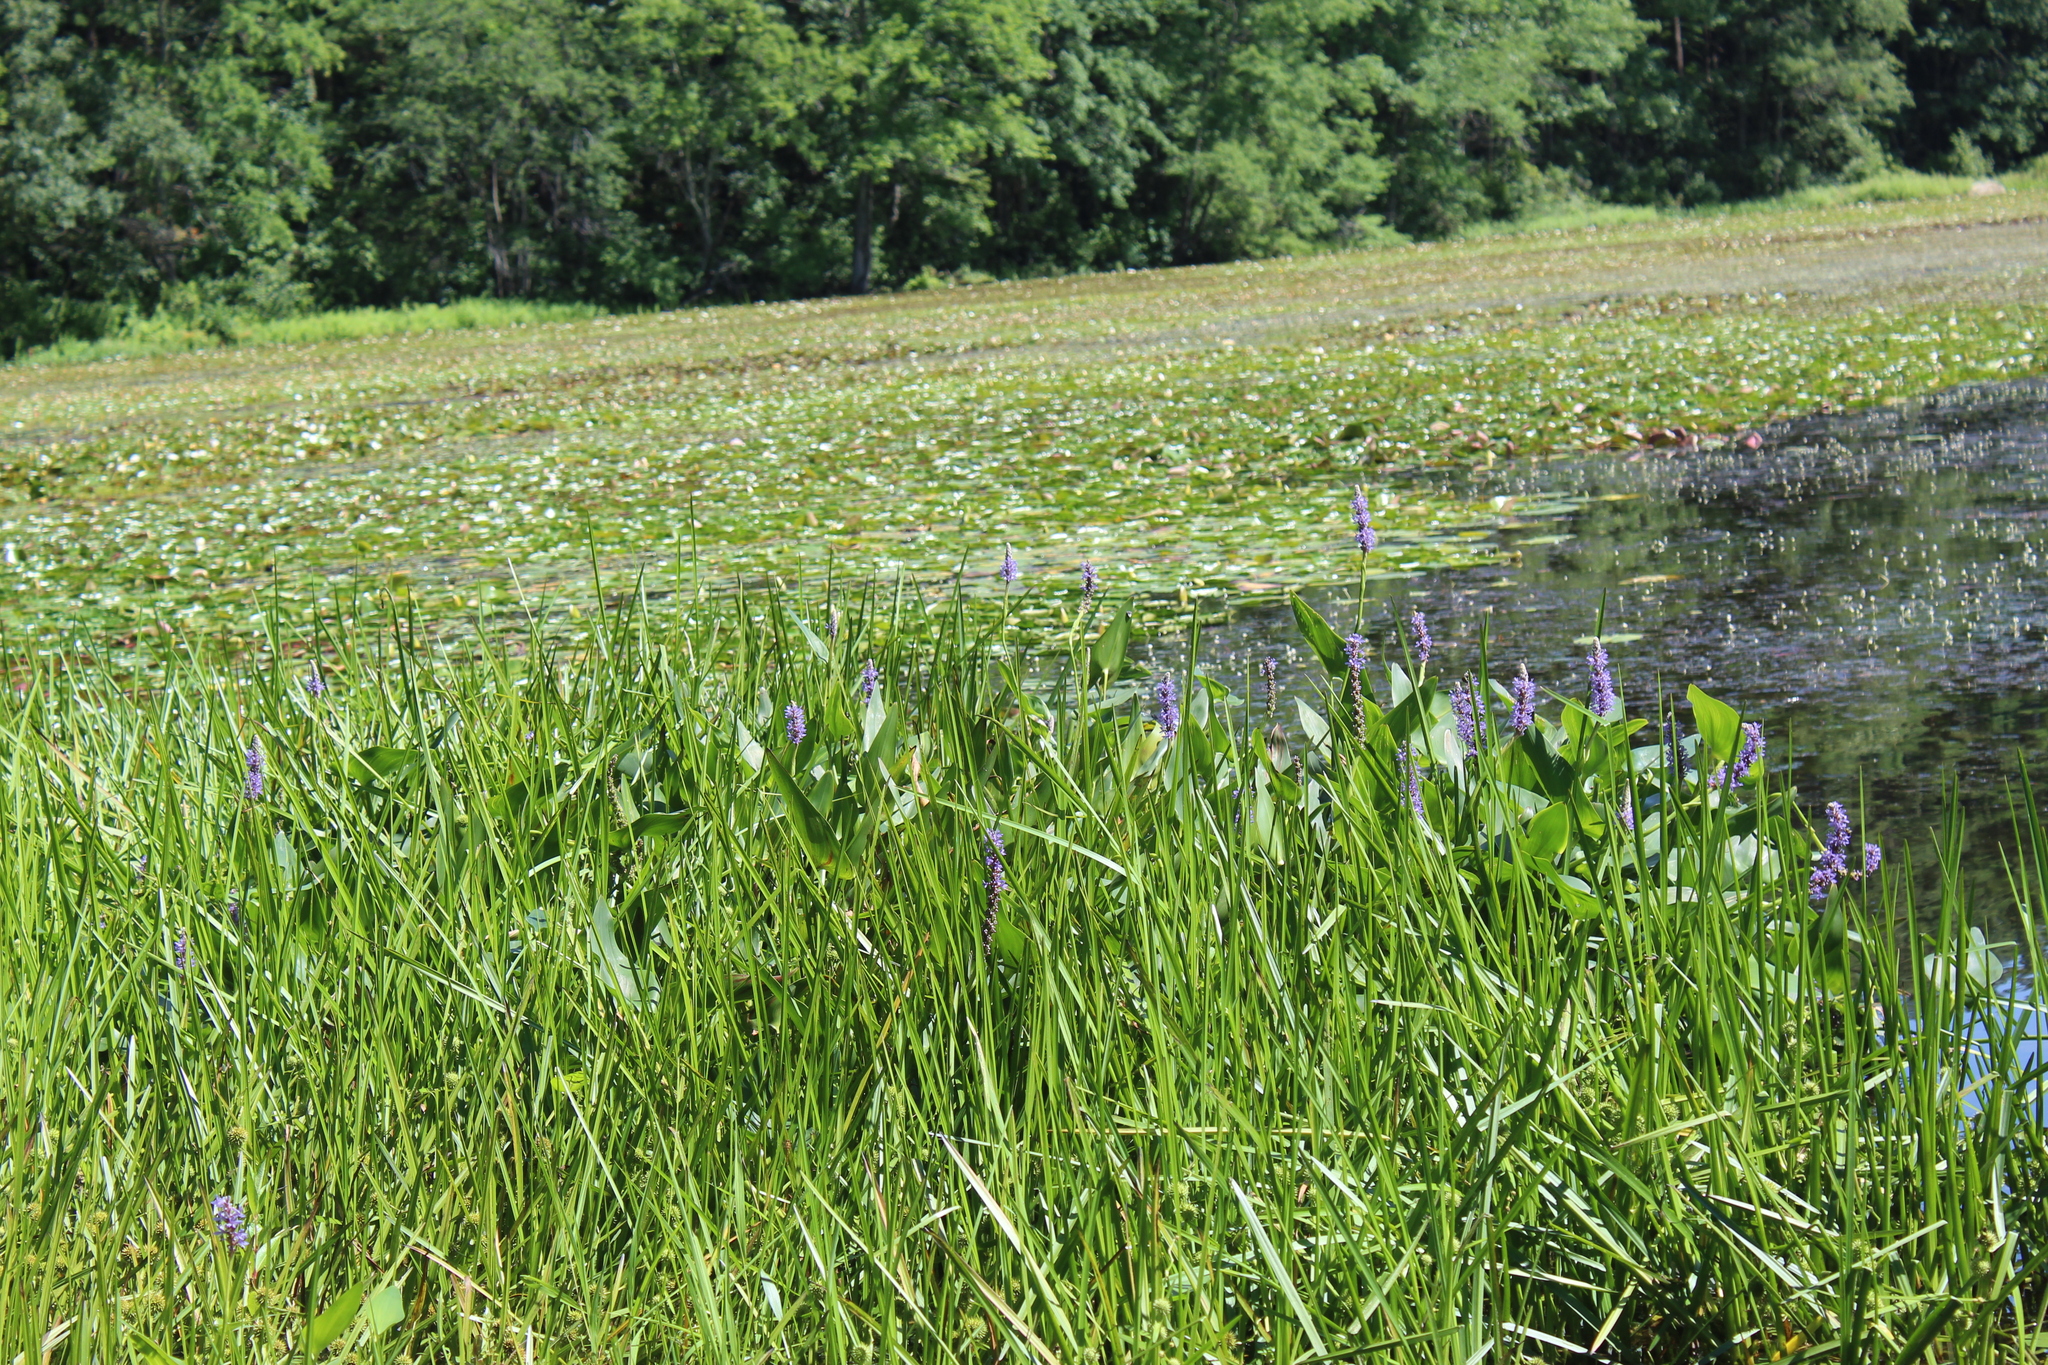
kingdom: Plantae
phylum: Tracheophyta
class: Liliopsida
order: Commelinales
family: Pontederiaceae
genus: Pontederia
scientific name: Pontederia cordata
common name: Pickerelweed
